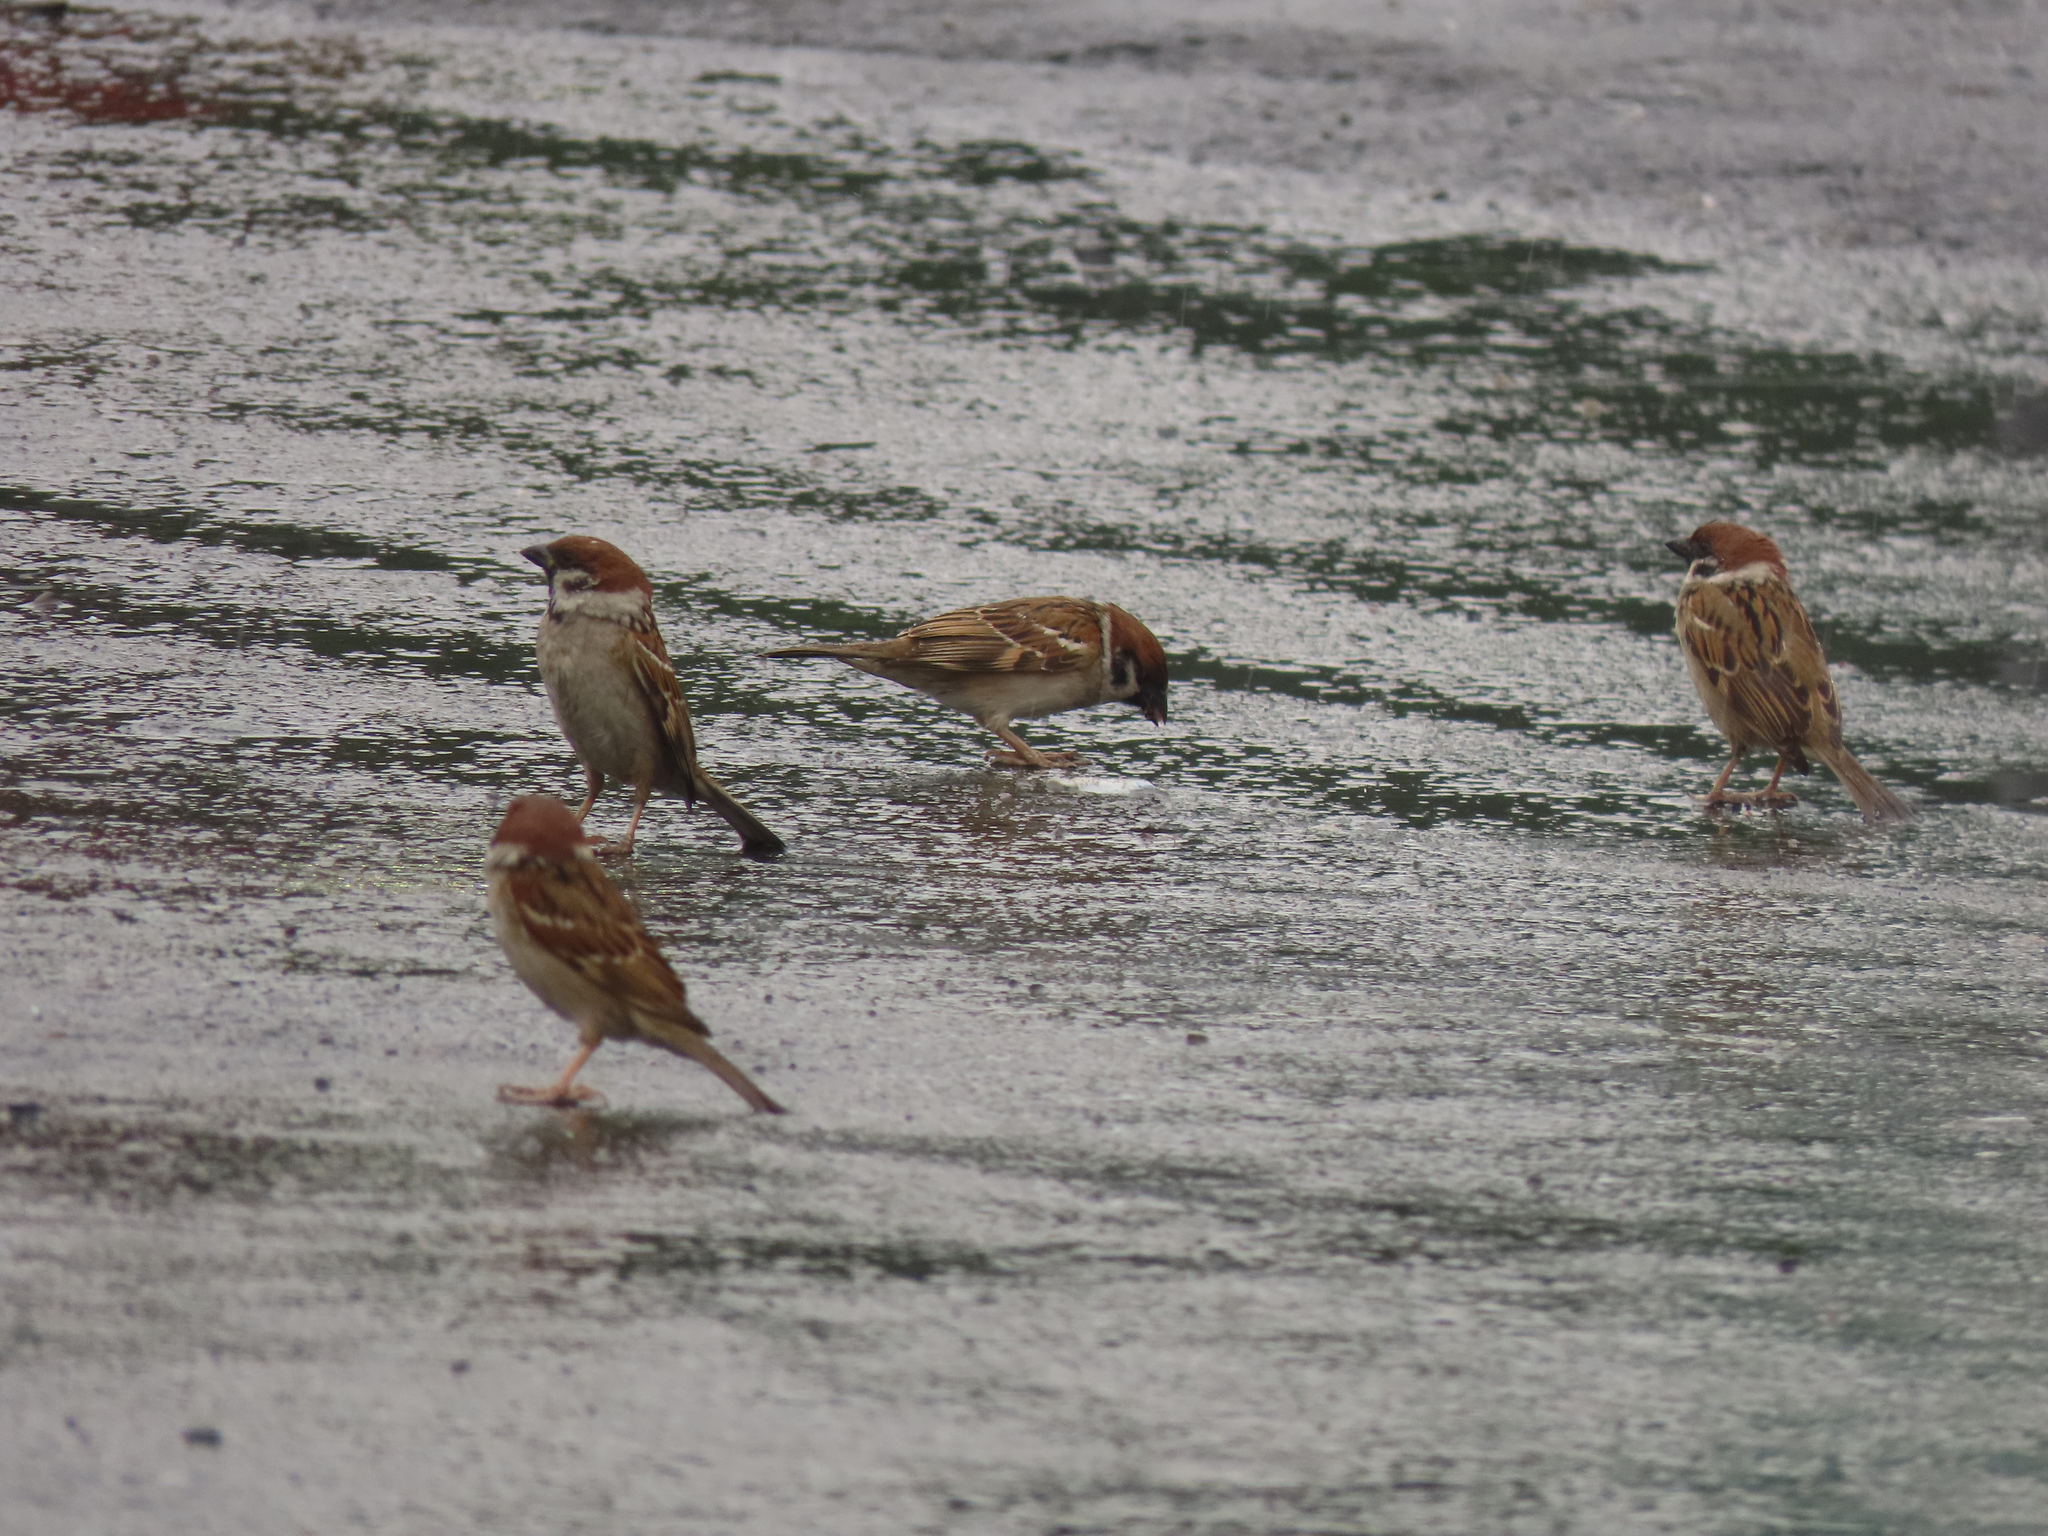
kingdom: Animalia
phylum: Chordata
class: Aves
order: Passeriformes
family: Passeridae
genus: Passer
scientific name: Passer montanus
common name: Eurasian tree sparrow
